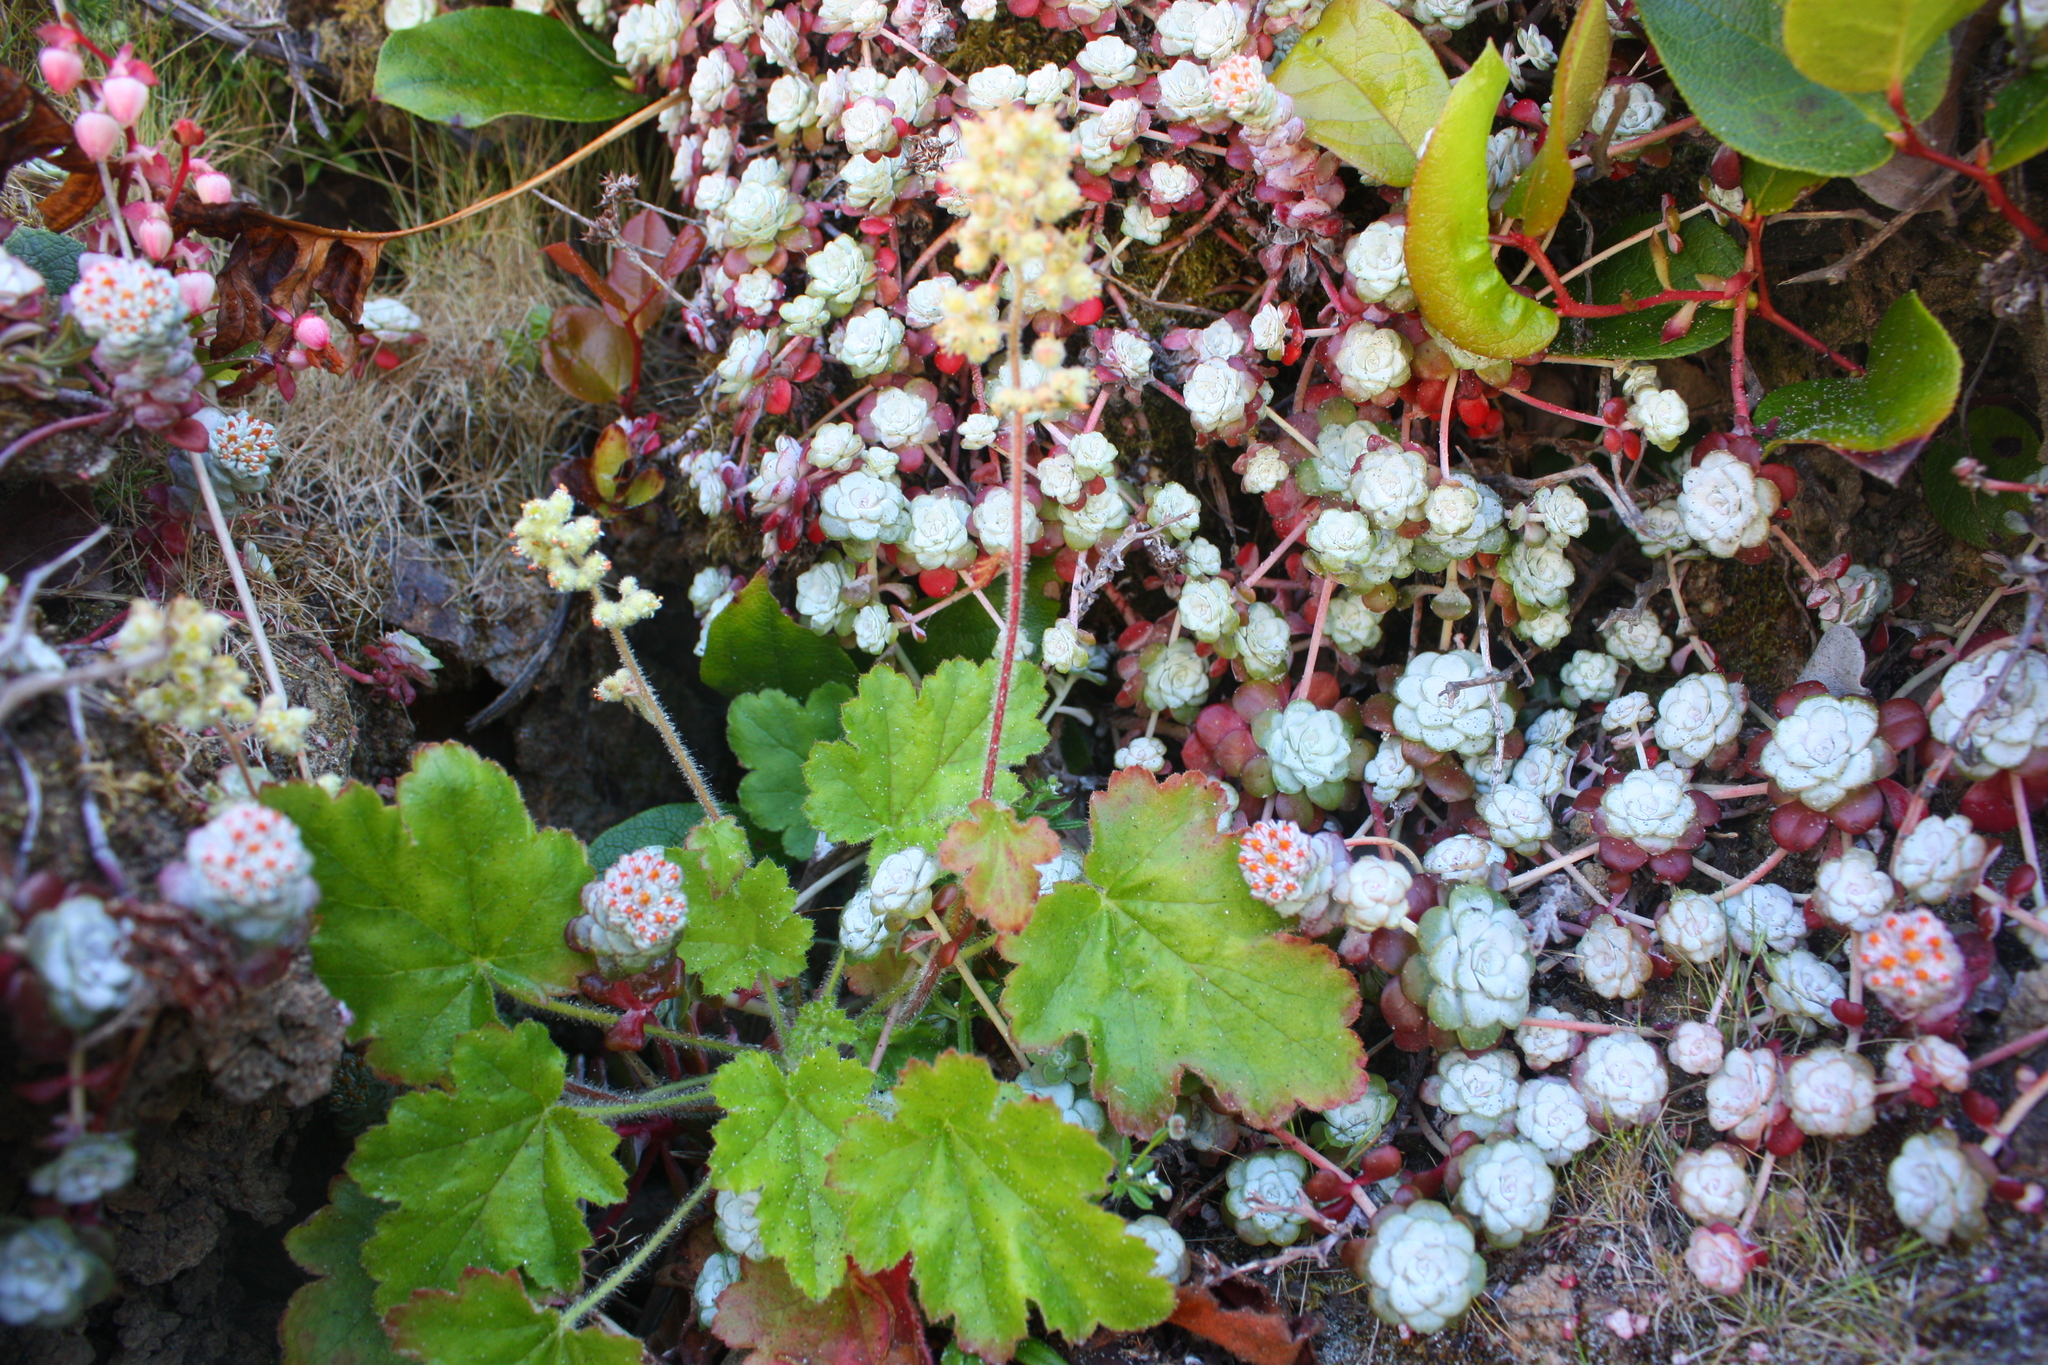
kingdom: Plantae
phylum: Tracheophyta
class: Magnoliopsida
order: Saxifragales
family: Saxifragaceae
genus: Heuchera
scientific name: Heuchera pilosissima
